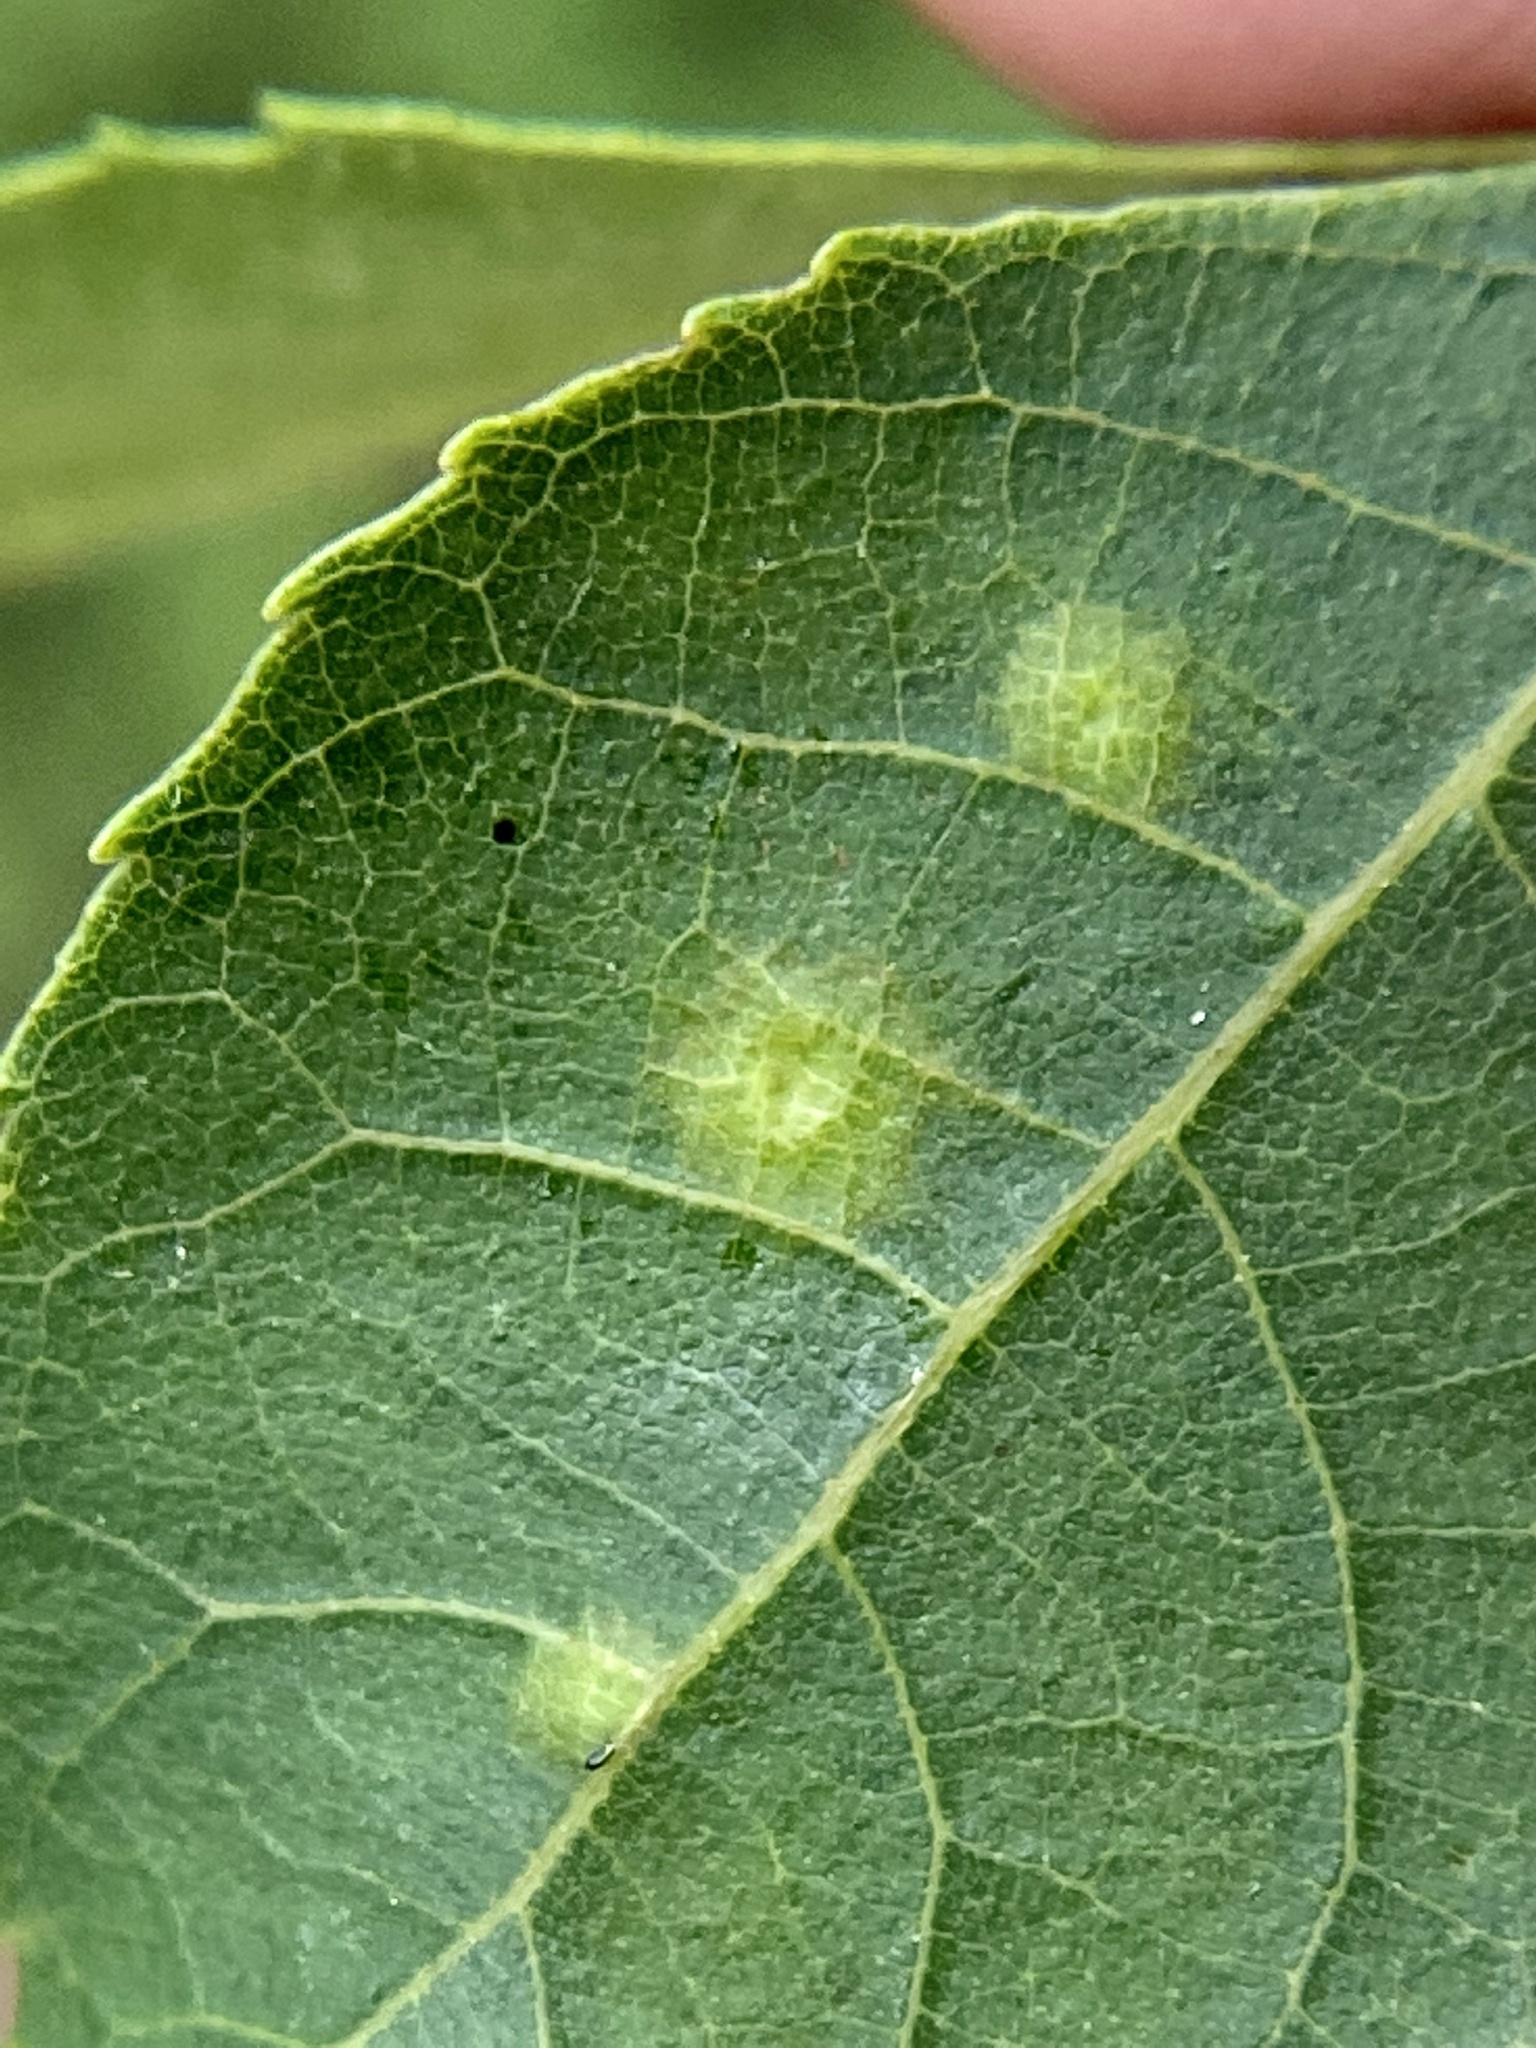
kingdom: Animalia
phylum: Arthropoda
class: Insecta
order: Diptera
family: Cecidomyiidae
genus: Caryomyia
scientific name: Caryomyia caryae
